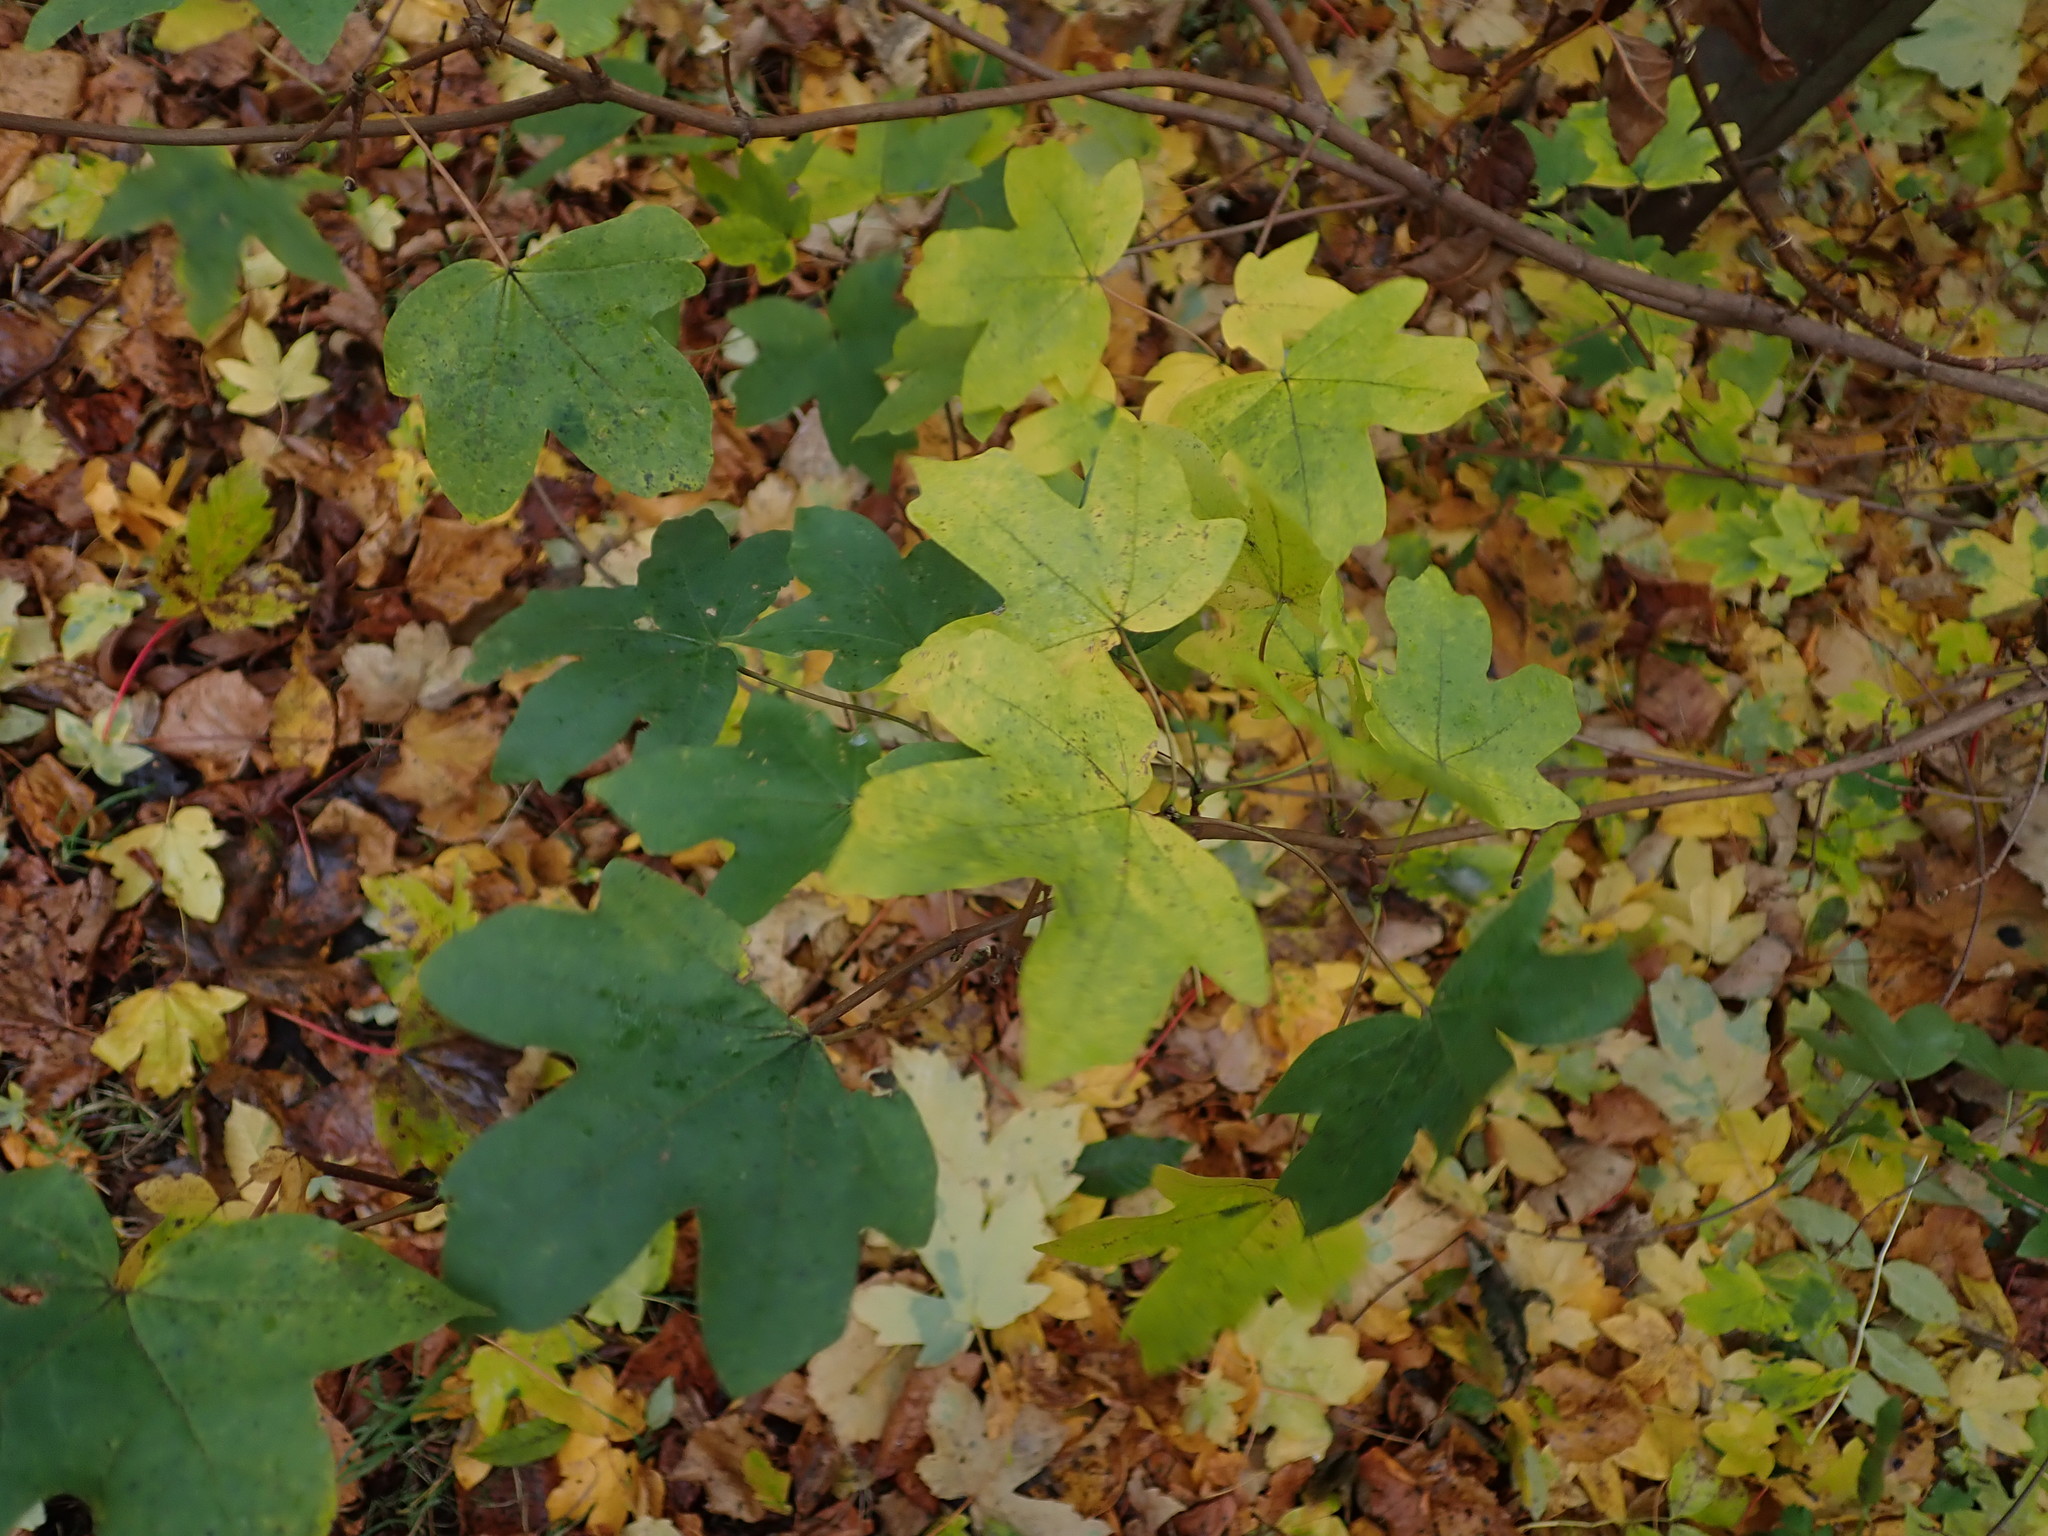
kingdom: Plantae
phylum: Tracheophyta
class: Magnoliopsida
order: Sapindales
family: Sapindaceae
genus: Acer
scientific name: Acer campestre
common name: Field maple
